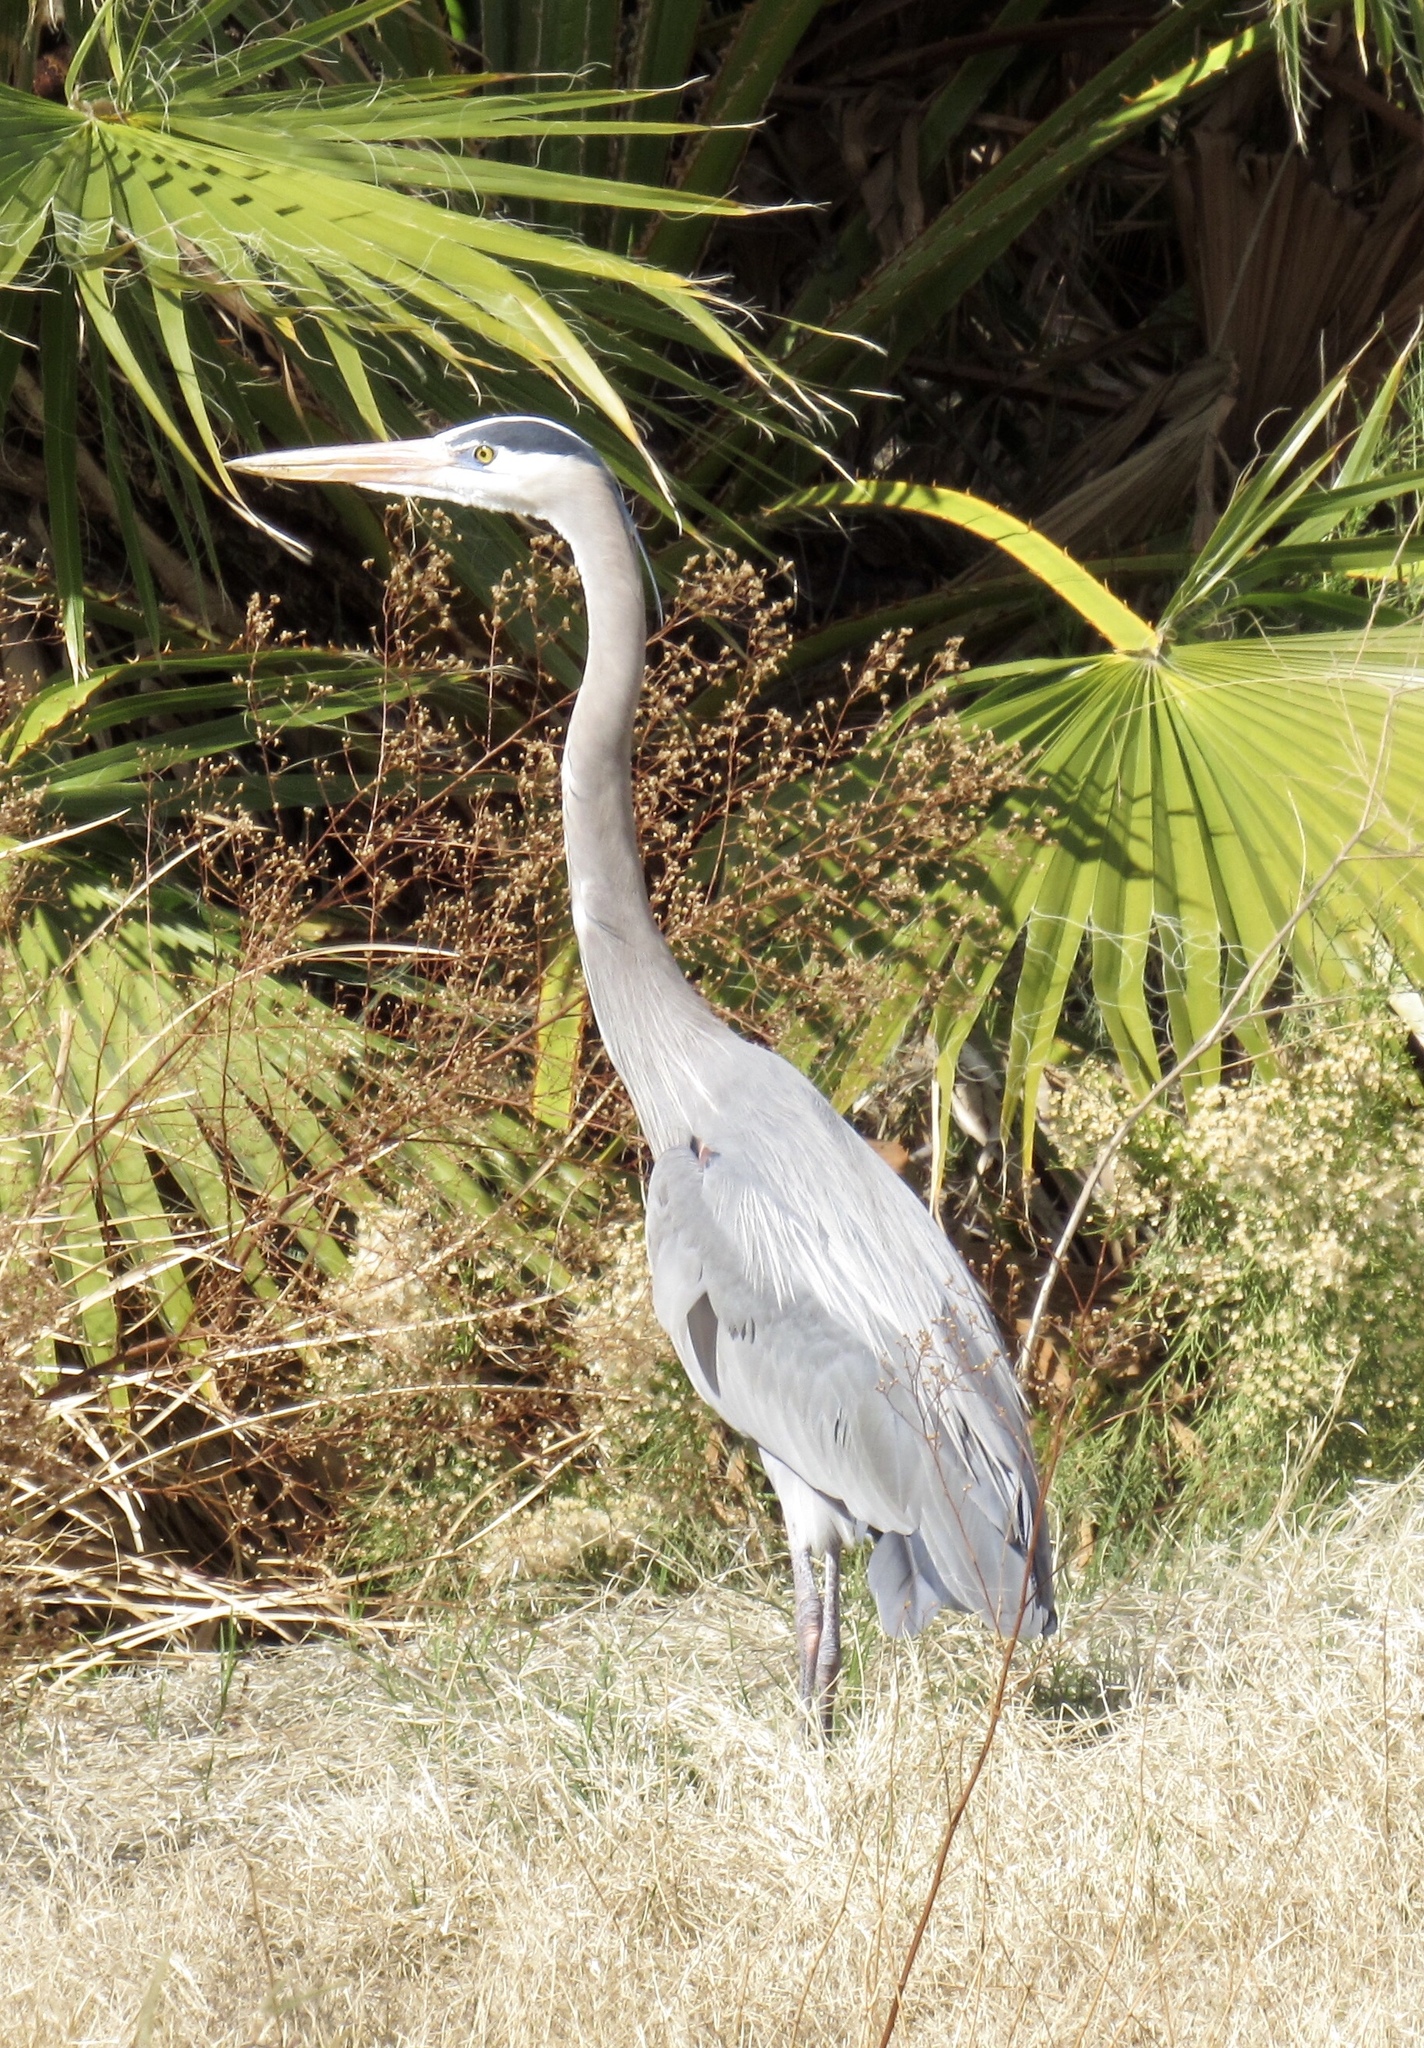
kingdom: Animalia
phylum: Chordata
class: Aves
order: Pelecaniformes
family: Ardeidae
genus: Ardea
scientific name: Ardea herodias
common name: Great blue heron
